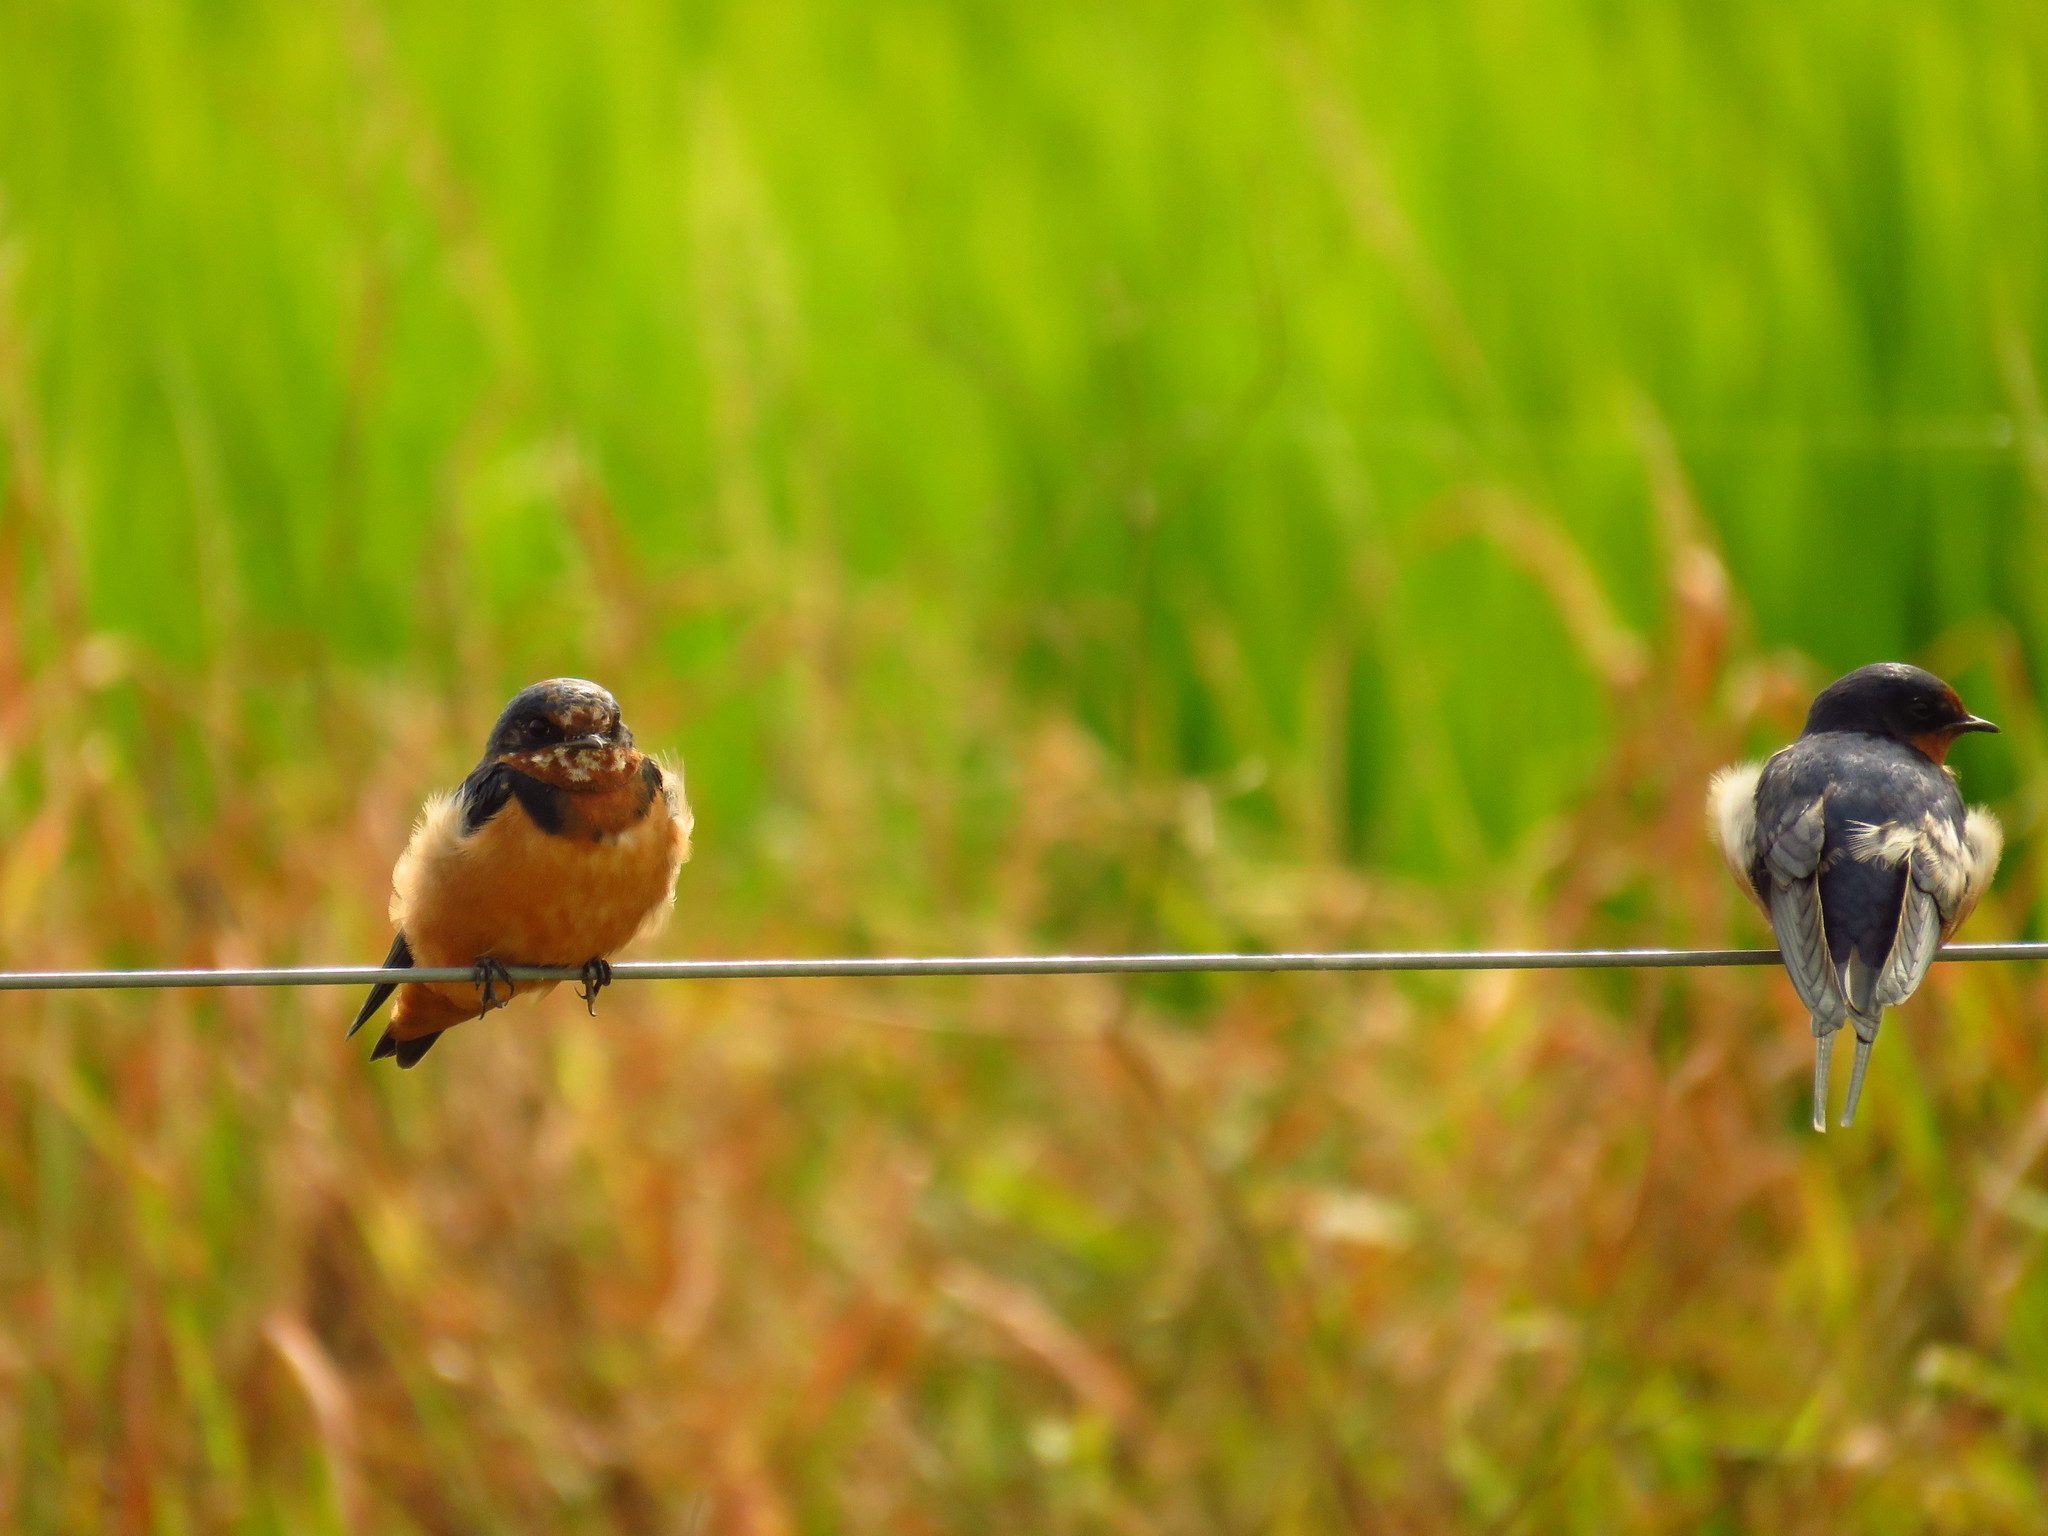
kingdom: Animalia
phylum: Chordata
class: Aves
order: Passeriformes
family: Hirundinidae
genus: Hirundo
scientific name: Hirundo rustica
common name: Barn swallow
